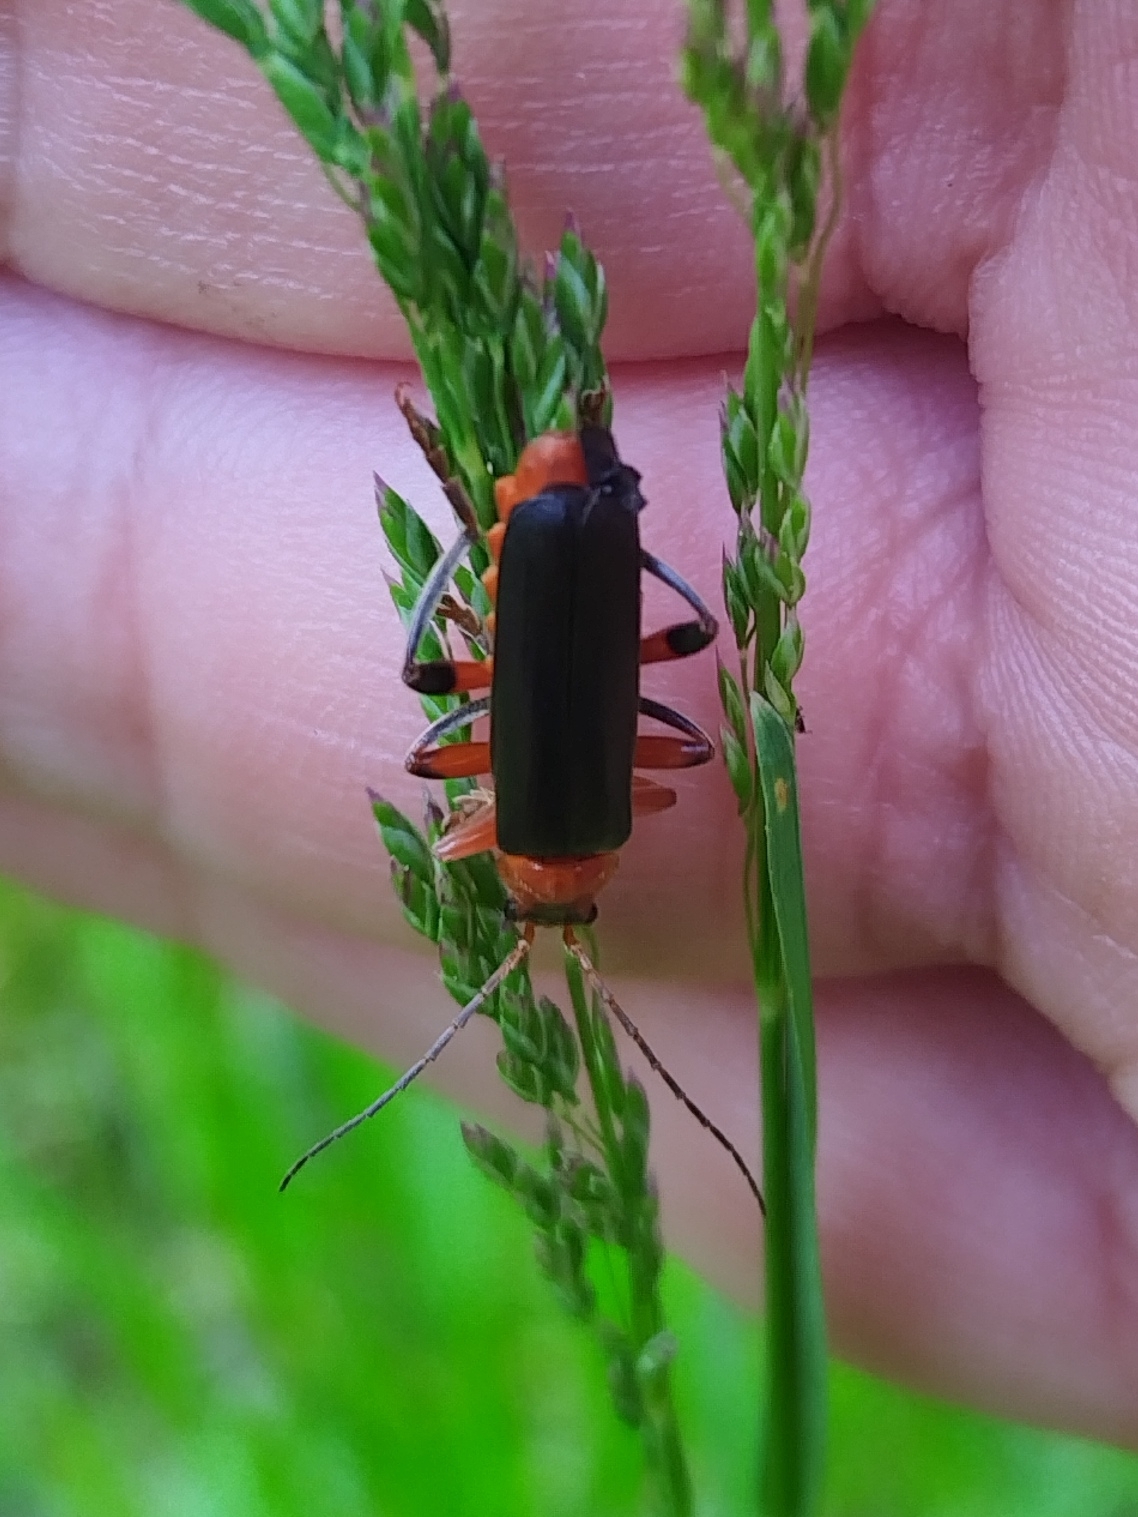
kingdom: Animalia
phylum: Arthropoda
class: Insecta
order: Coleoptera
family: Cantharidae
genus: Cantharis
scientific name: Cantharis livida
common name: Livid soldier beetle
